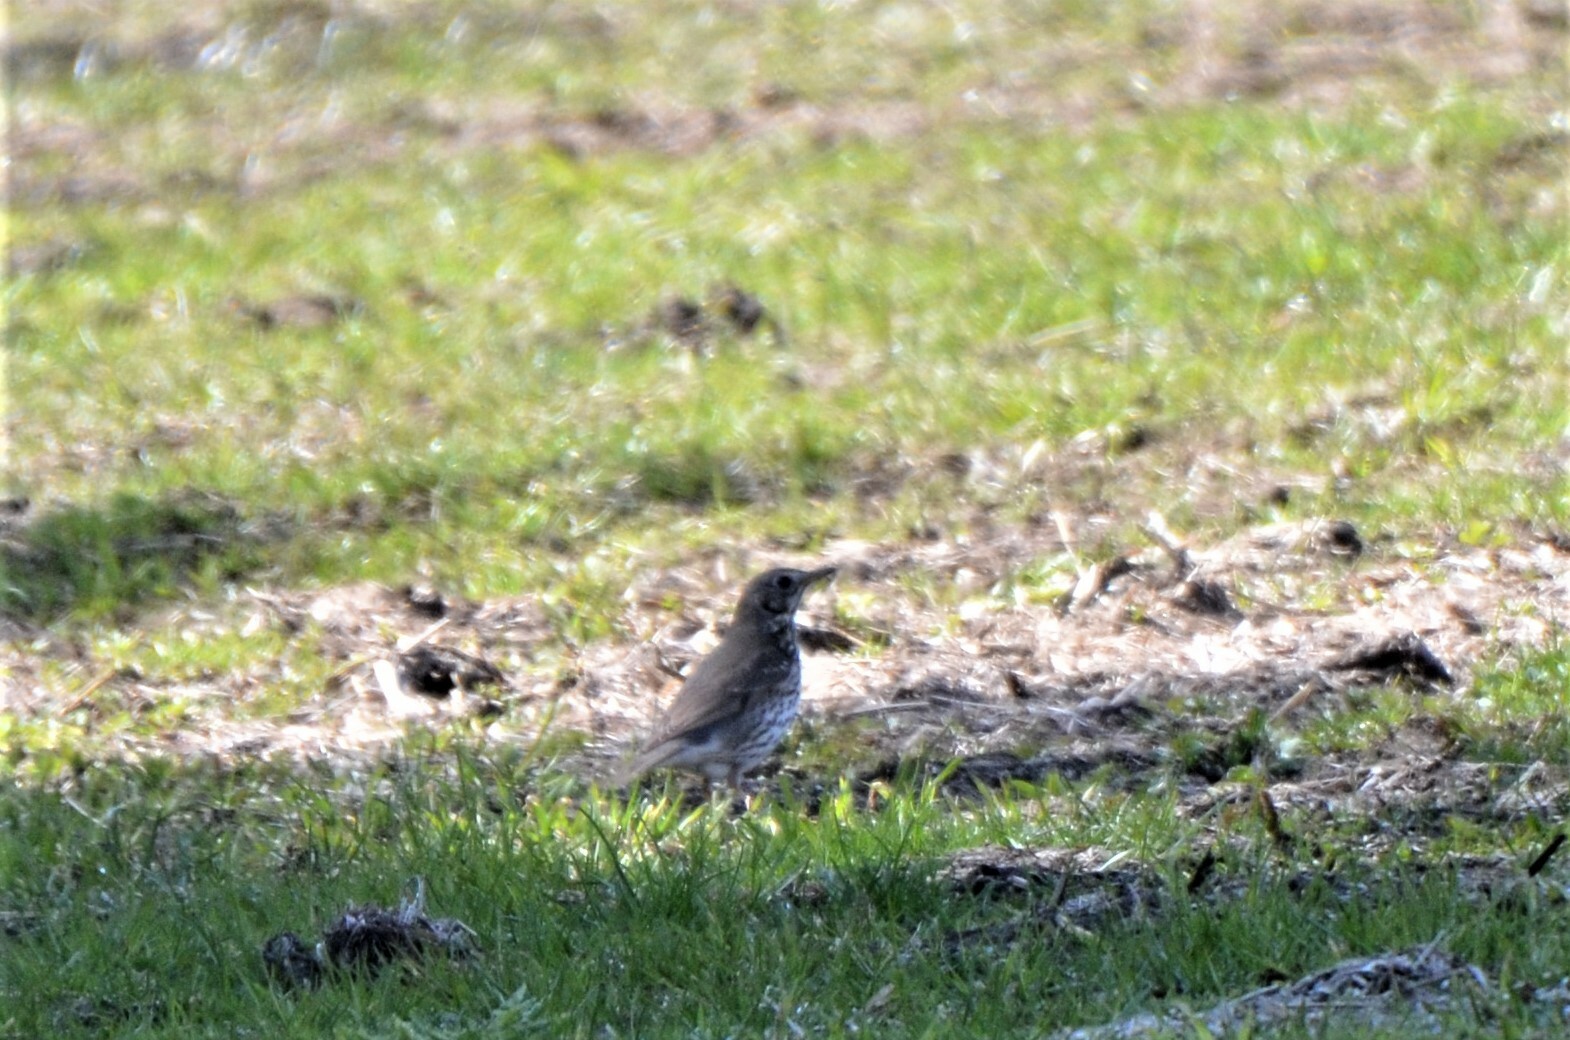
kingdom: Animalia
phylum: Chordata
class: Aves
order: Passeriformes
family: Turdidae
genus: Turdus
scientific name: Turdus philomelos
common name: Song thrush
